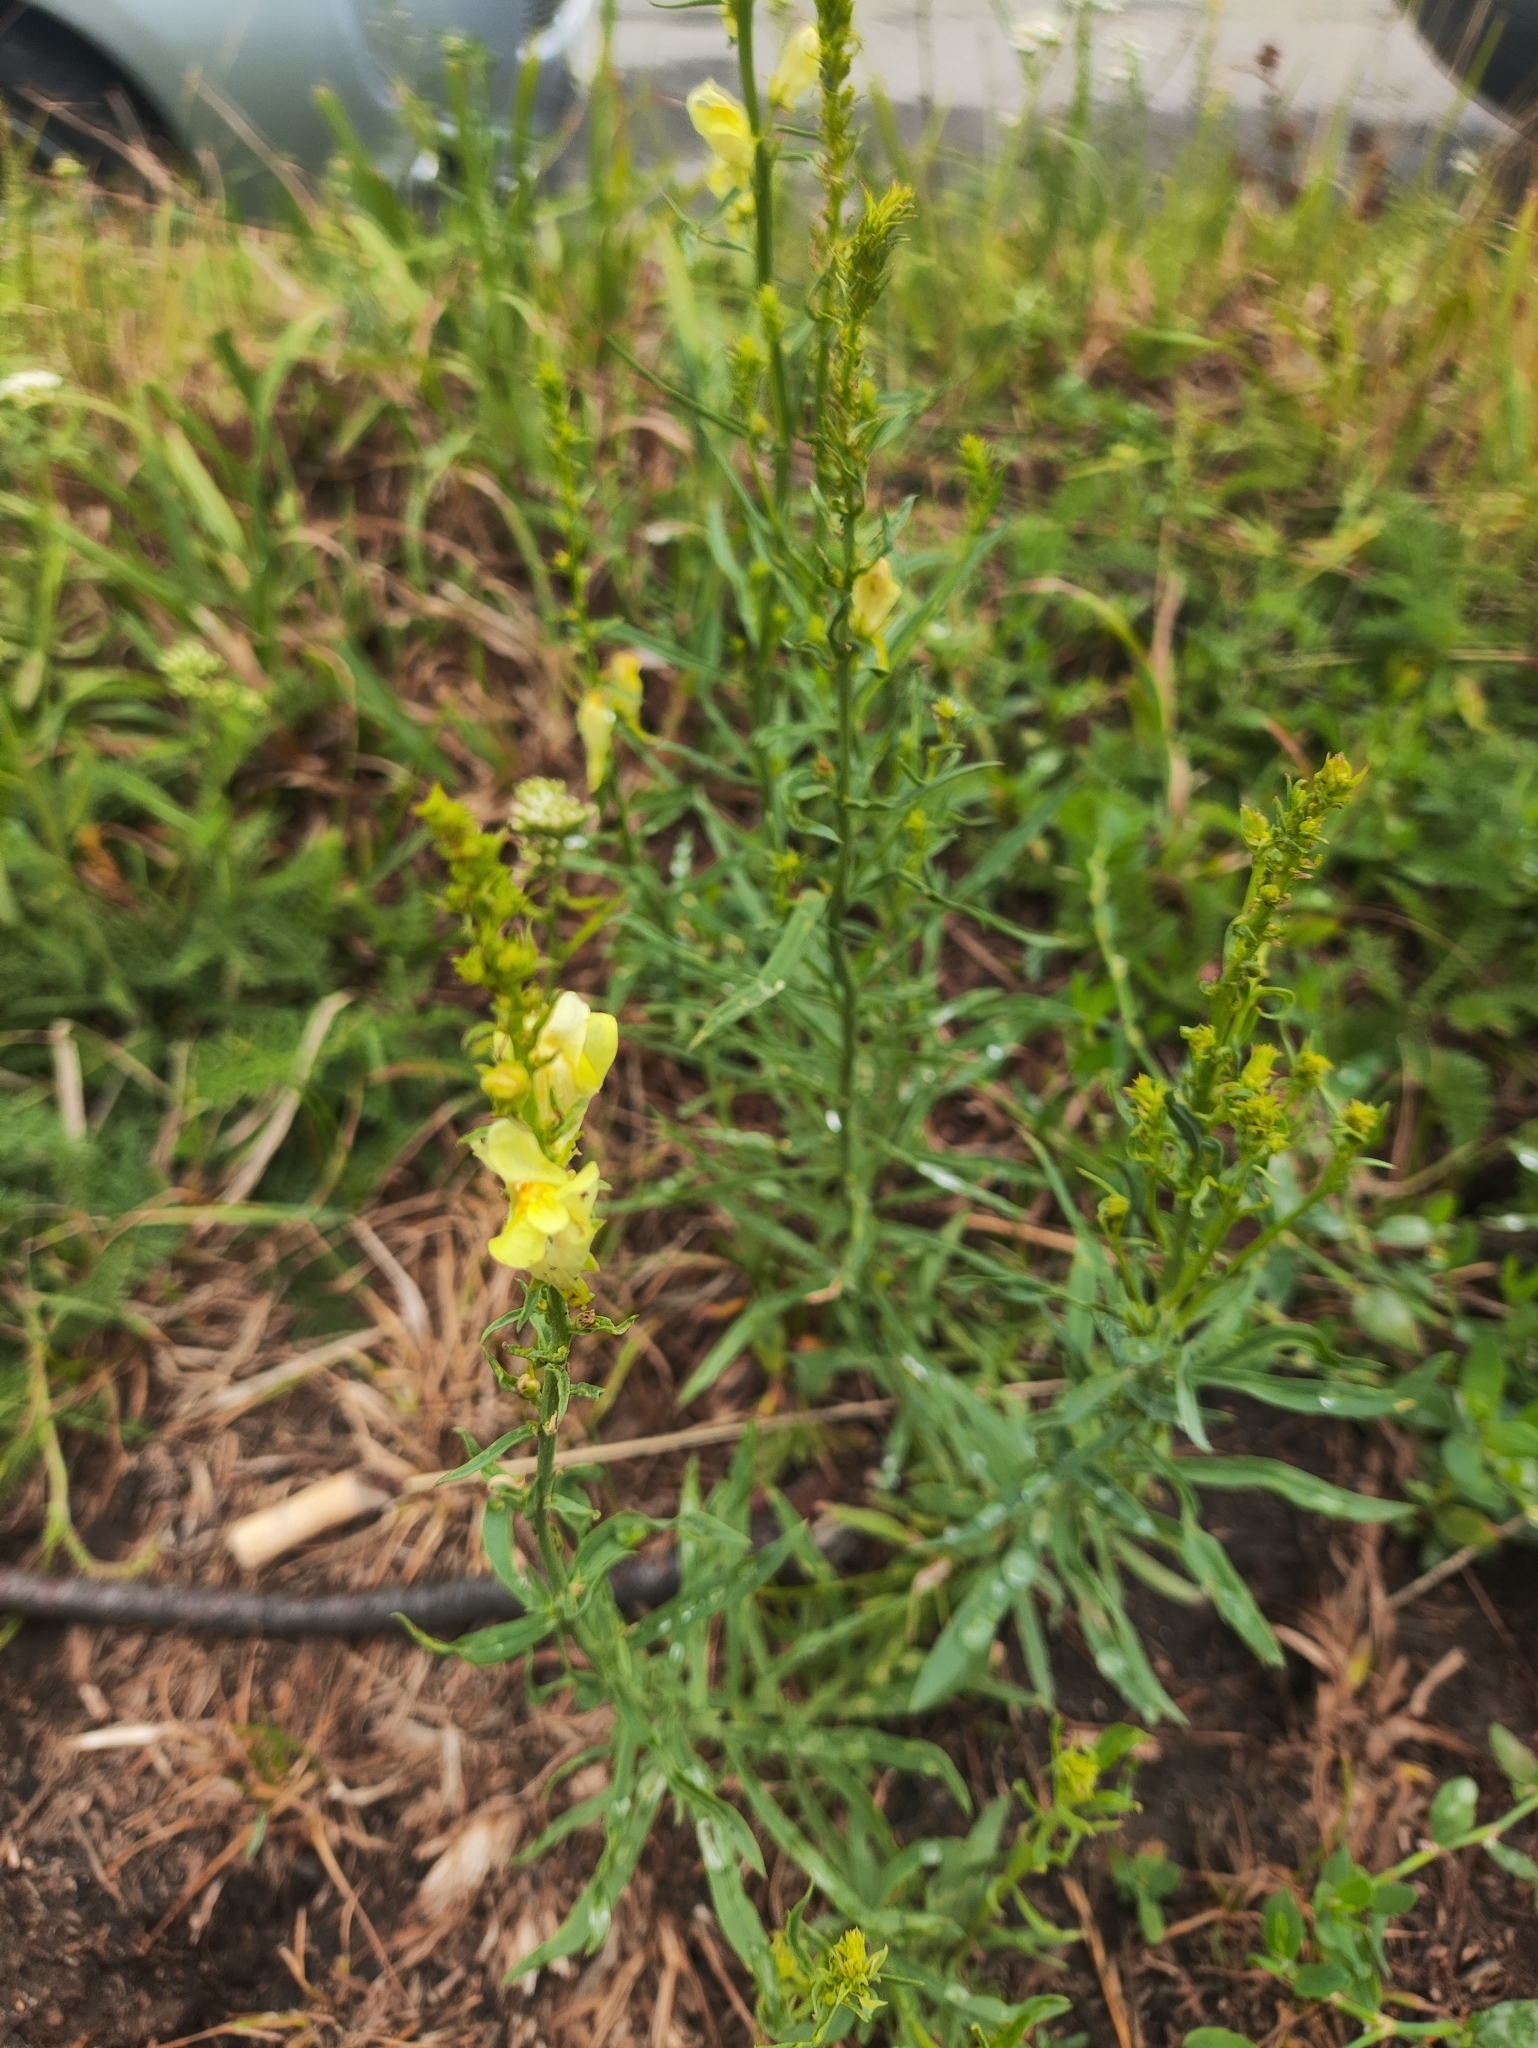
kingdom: Plantae
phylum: Tracheophyta
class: Magnoliopsida
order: Lamiales
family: Plantaginaceae
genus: Linaria
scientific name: Linaria vulgaris
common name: Butter and eggs
